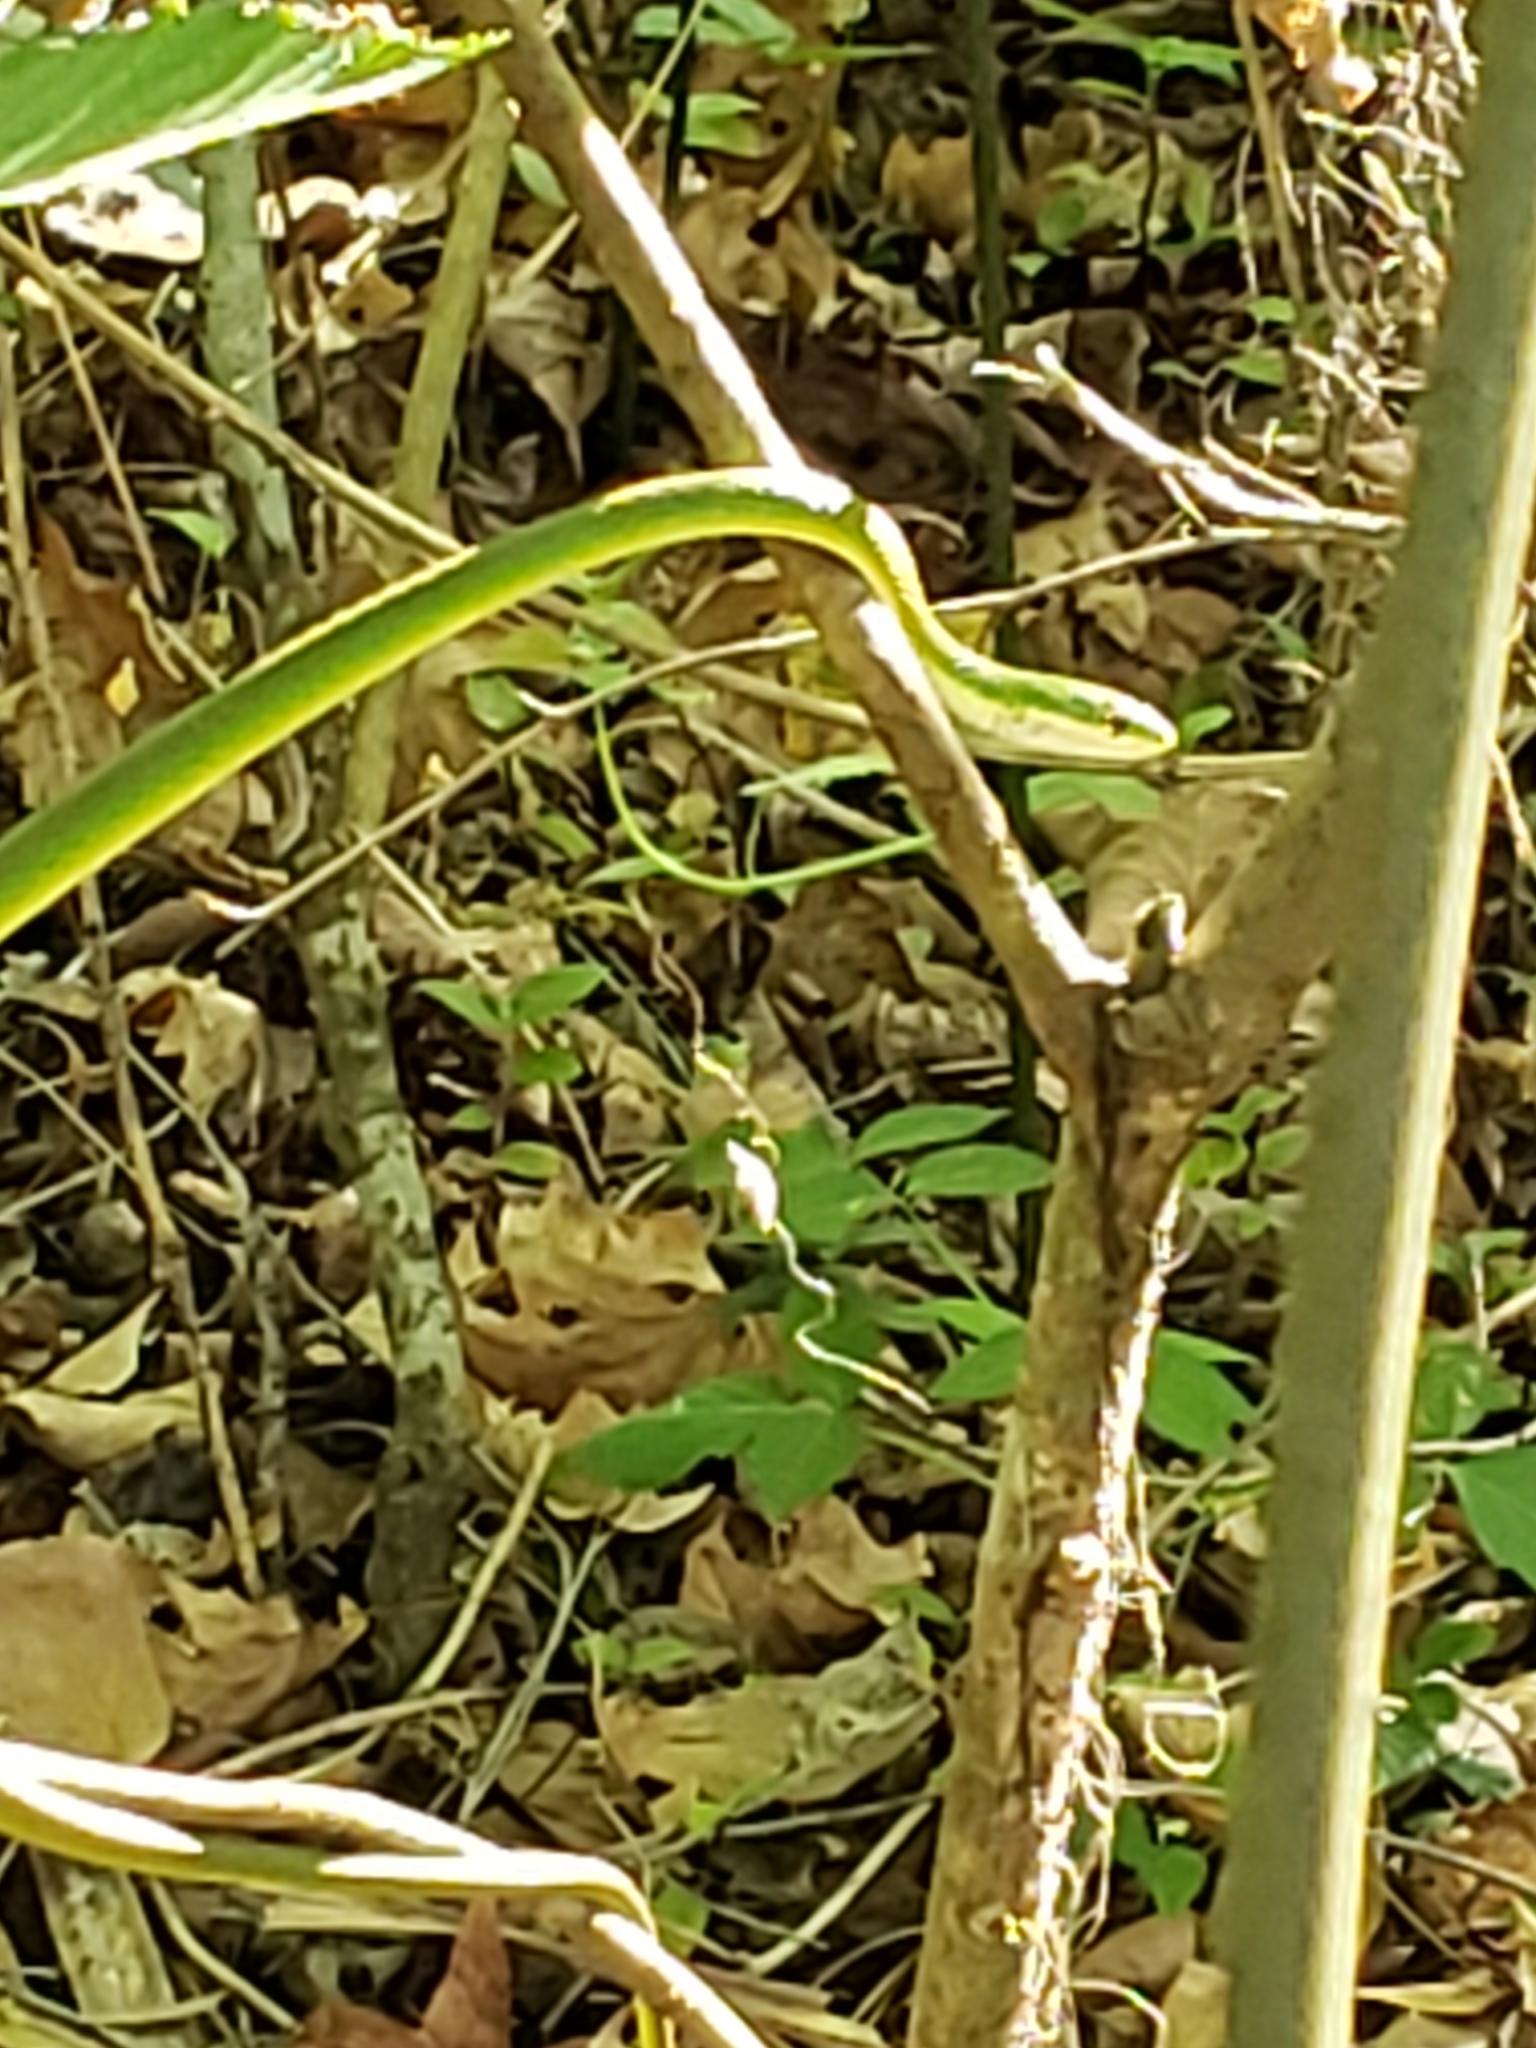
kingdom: Animalia
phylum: Chordata
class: Squamata
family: Colubridae
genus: Opheodrys
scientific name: Opheodrys aestivus
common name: Rough greensnake
